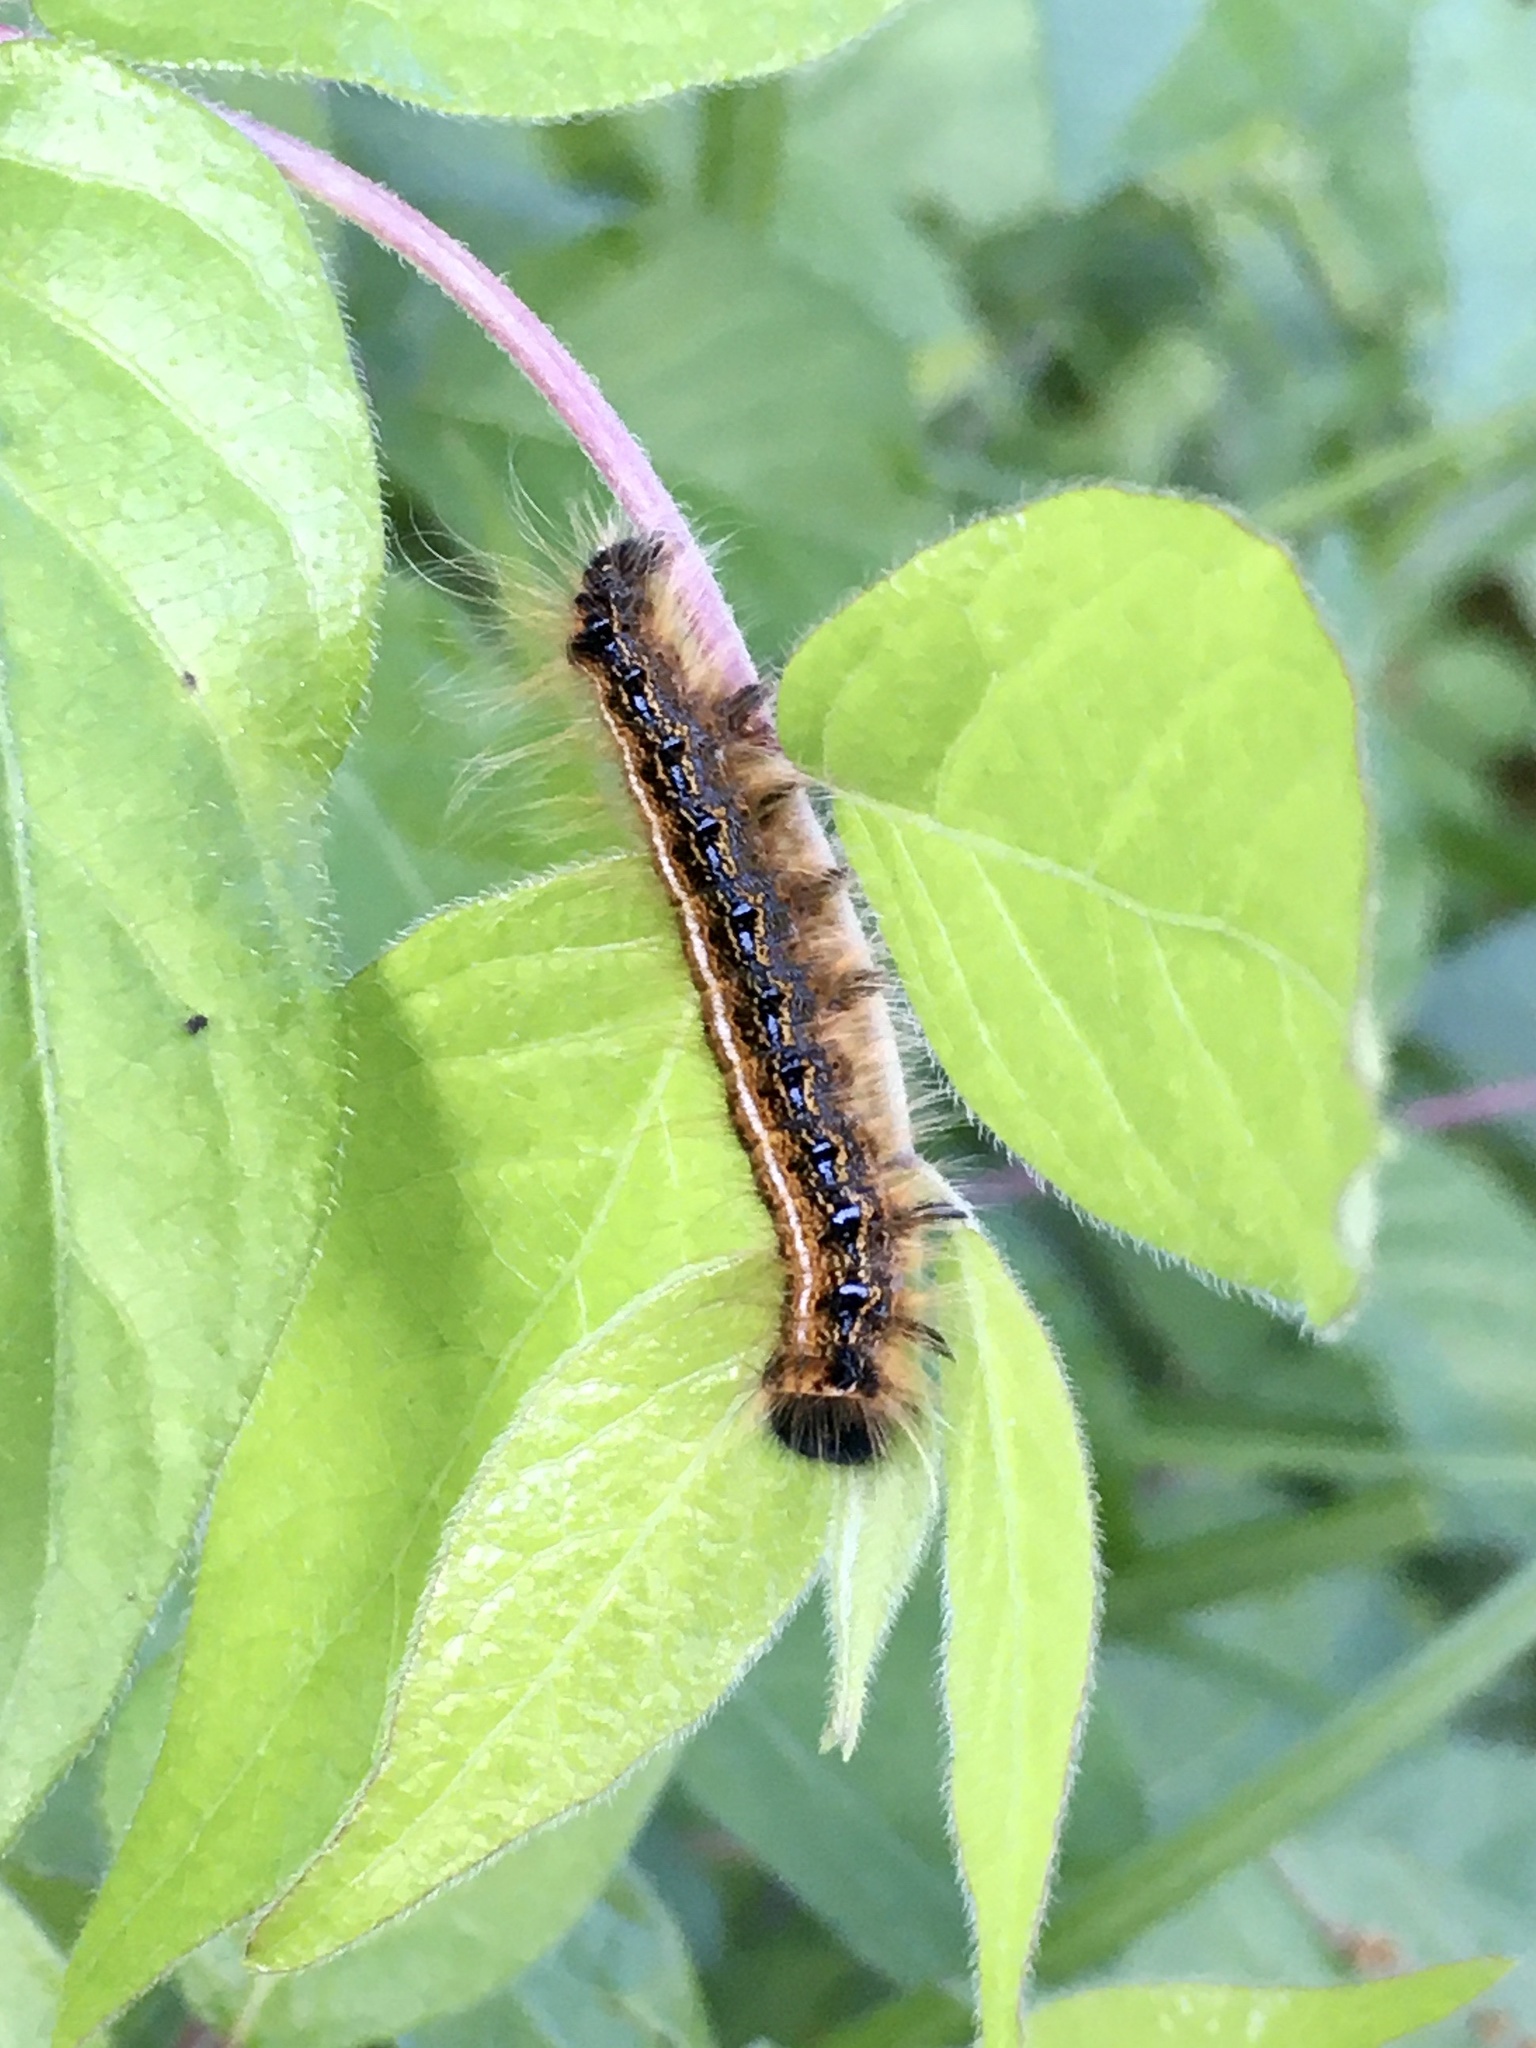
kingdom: Animalia
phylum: Arthropoda
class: Insecta
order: Lepidoptera
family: Lasiocampidae
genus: Malacosoma
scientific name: Malacosoma americana
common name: Eastern tent caterpillar moth
